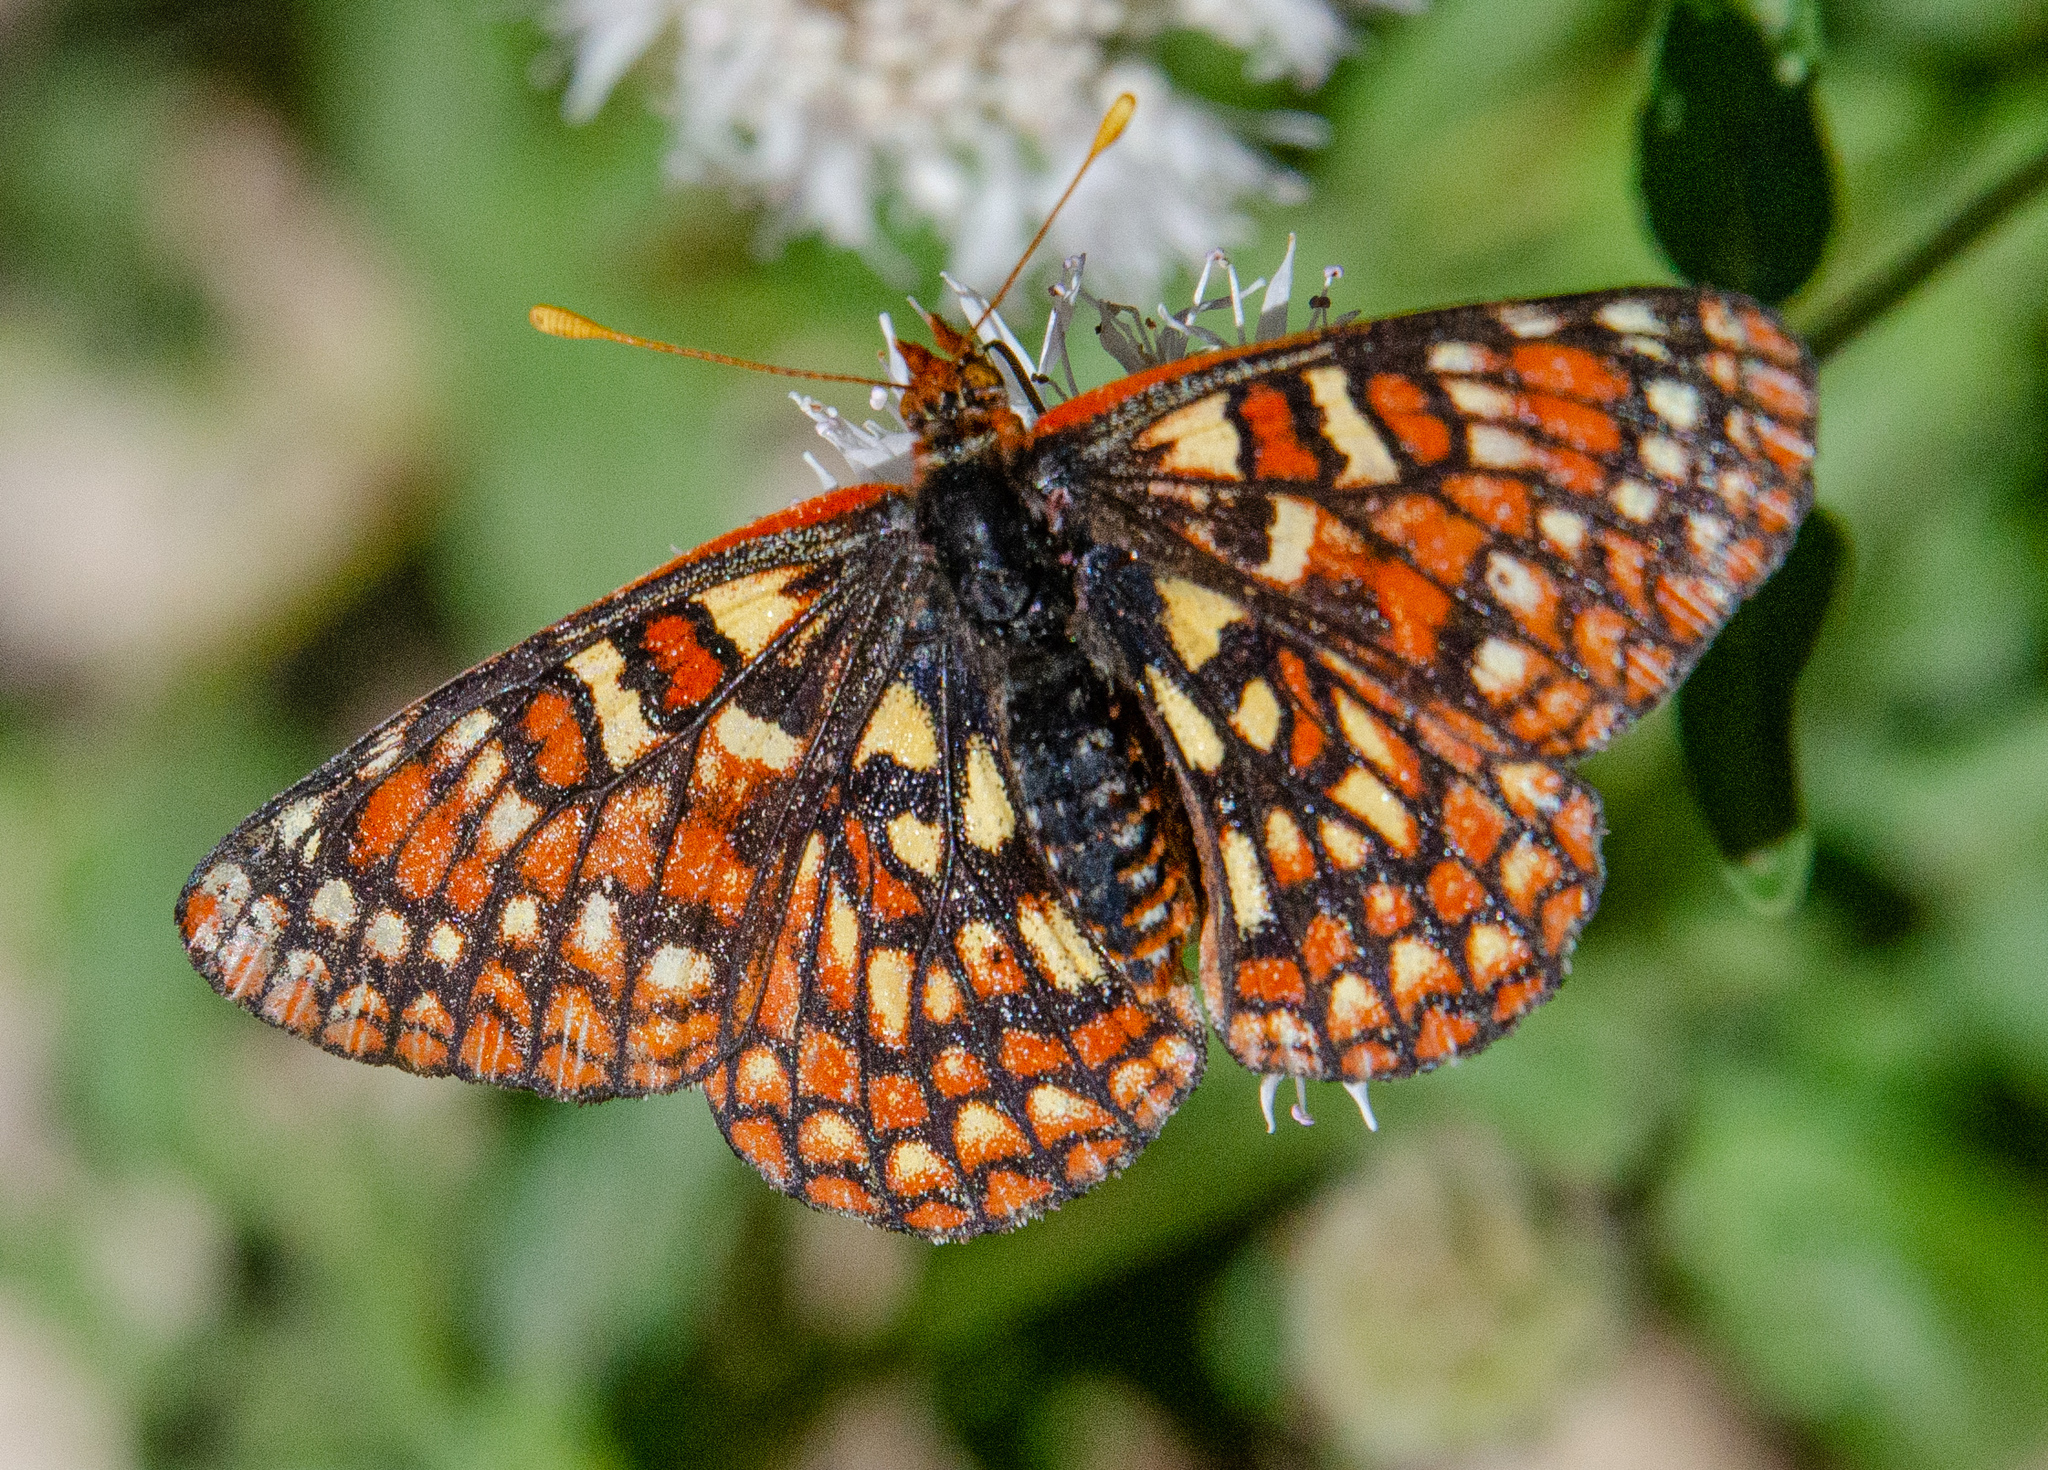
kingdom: Animalia
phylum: Arthropoda
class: Insecta
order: Lepidoptera
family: Nymphalidae
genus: Occidryas
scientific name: Occidryas chalcedona
